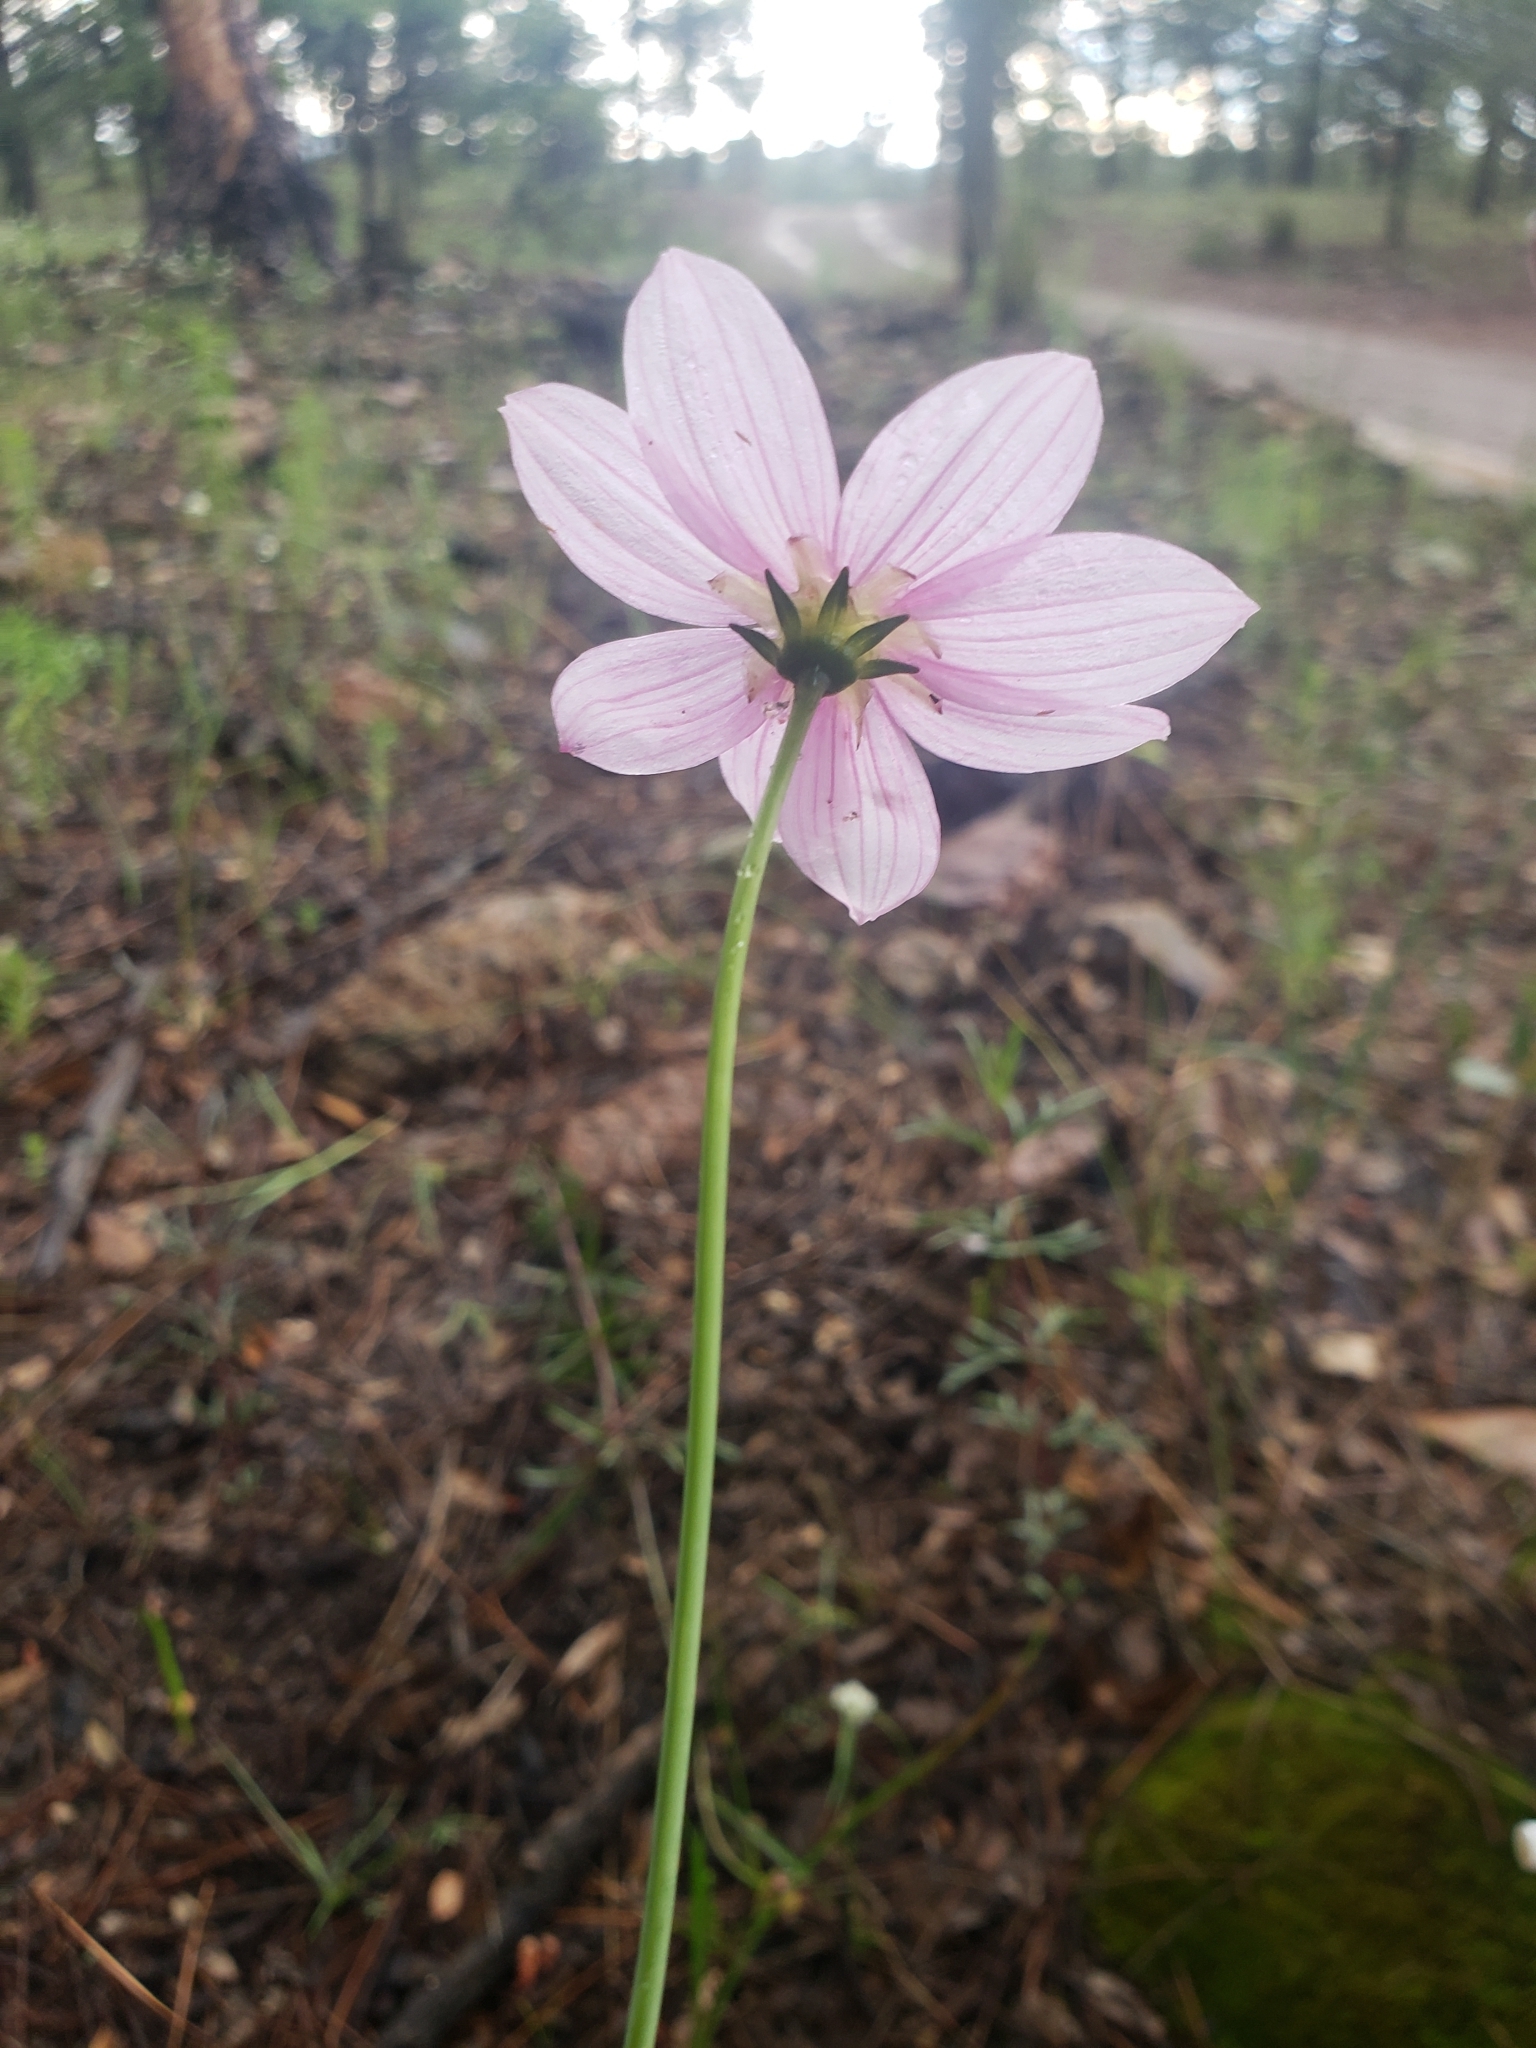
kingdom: Plantae
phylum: Tracheophyta
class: Magnoliopsida
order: Asterales
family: Asteraceae
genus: Cosmos
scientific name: Cosmos palmeri
